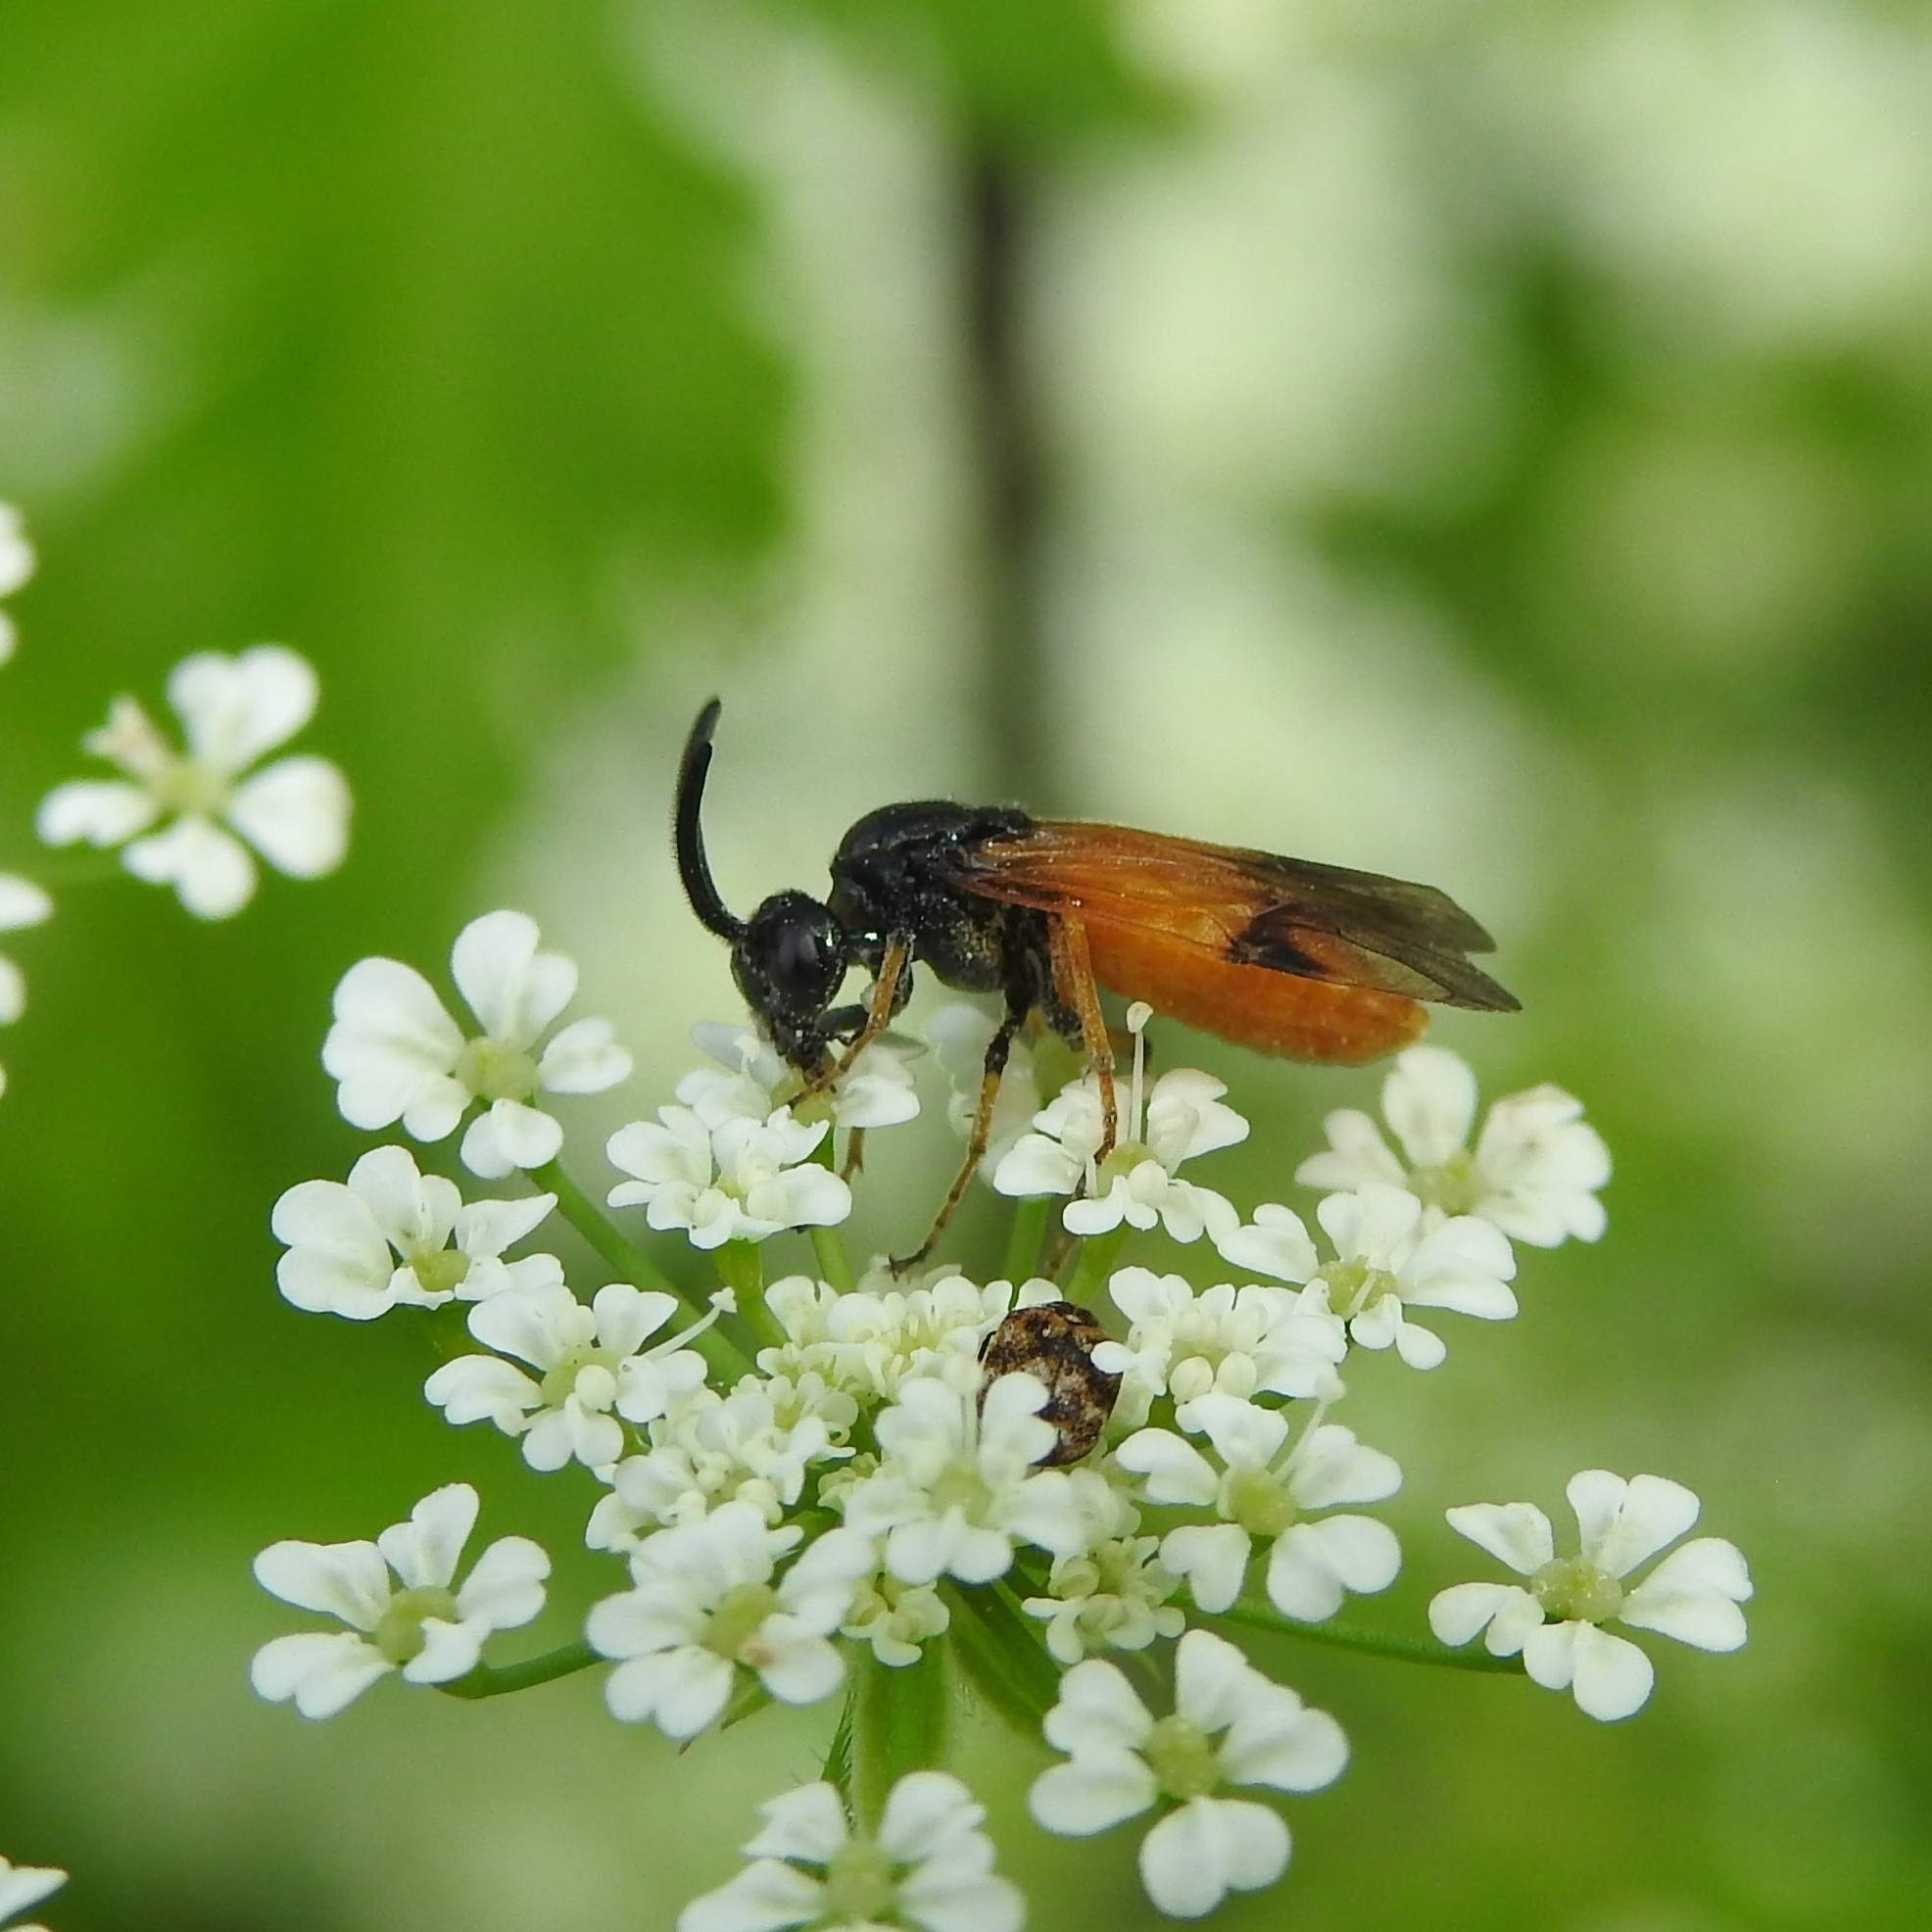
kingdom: Animalia
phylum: Arthropoda
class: Insecta
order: Hymenoptera
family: Argidae
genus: Arge
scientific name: Arge cyanocrocea
